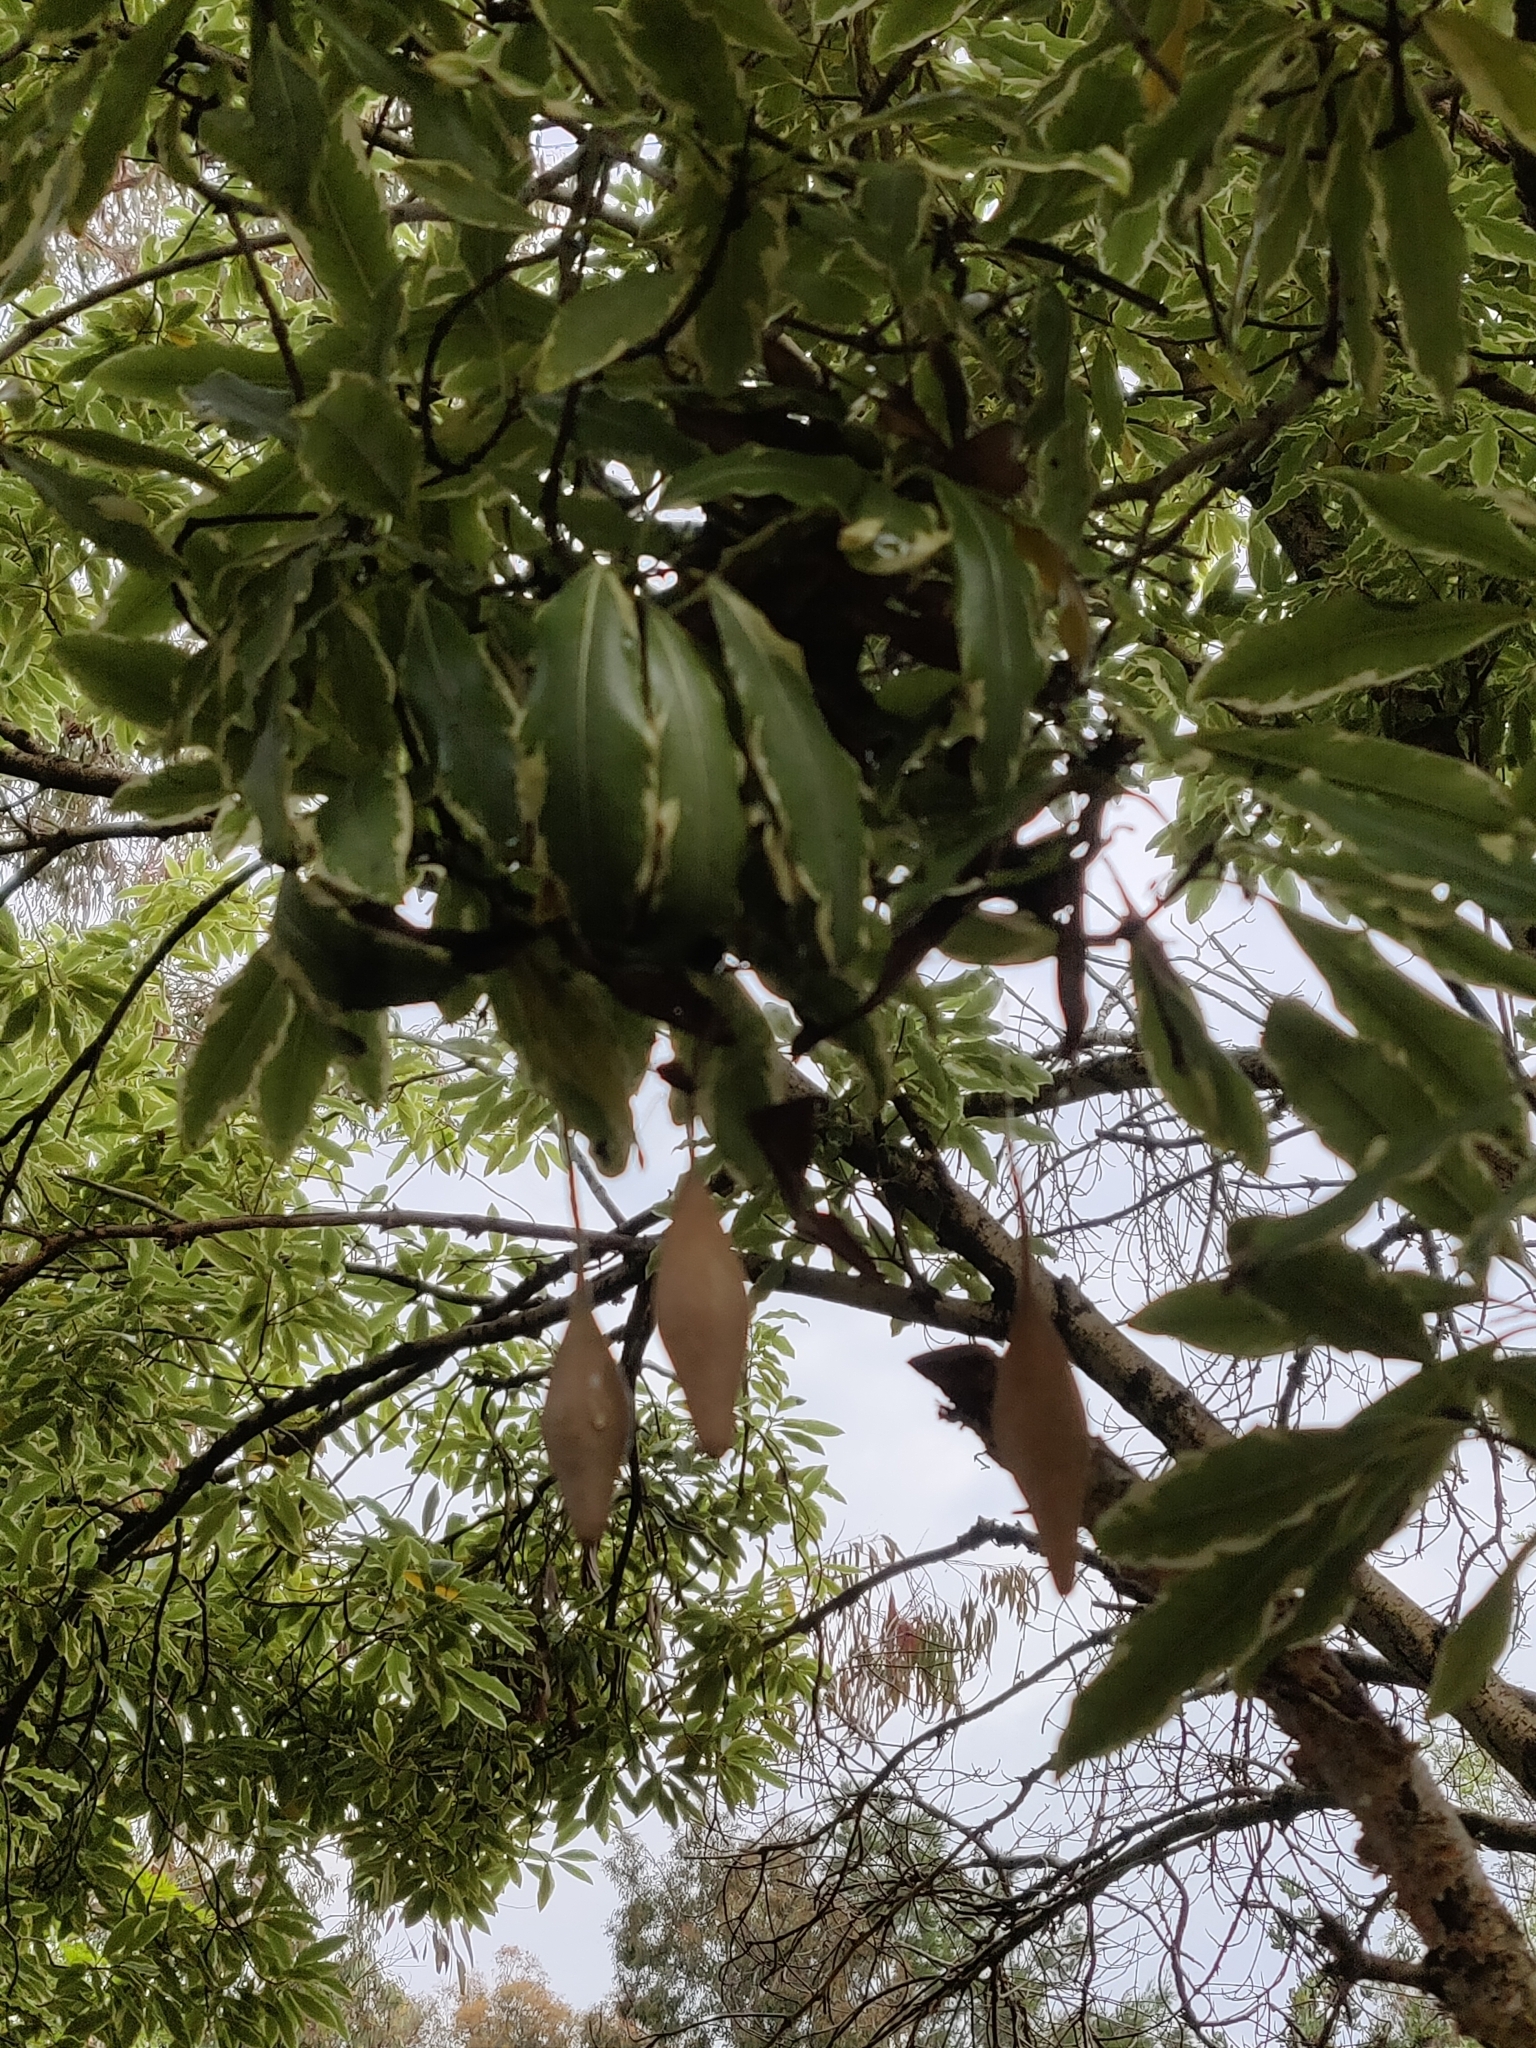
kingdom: Animalia
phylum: Arthropoda
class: Arachnida
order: Araneae
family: Araneidae
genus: Ordgarius
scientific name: Ordgarius magnificus
